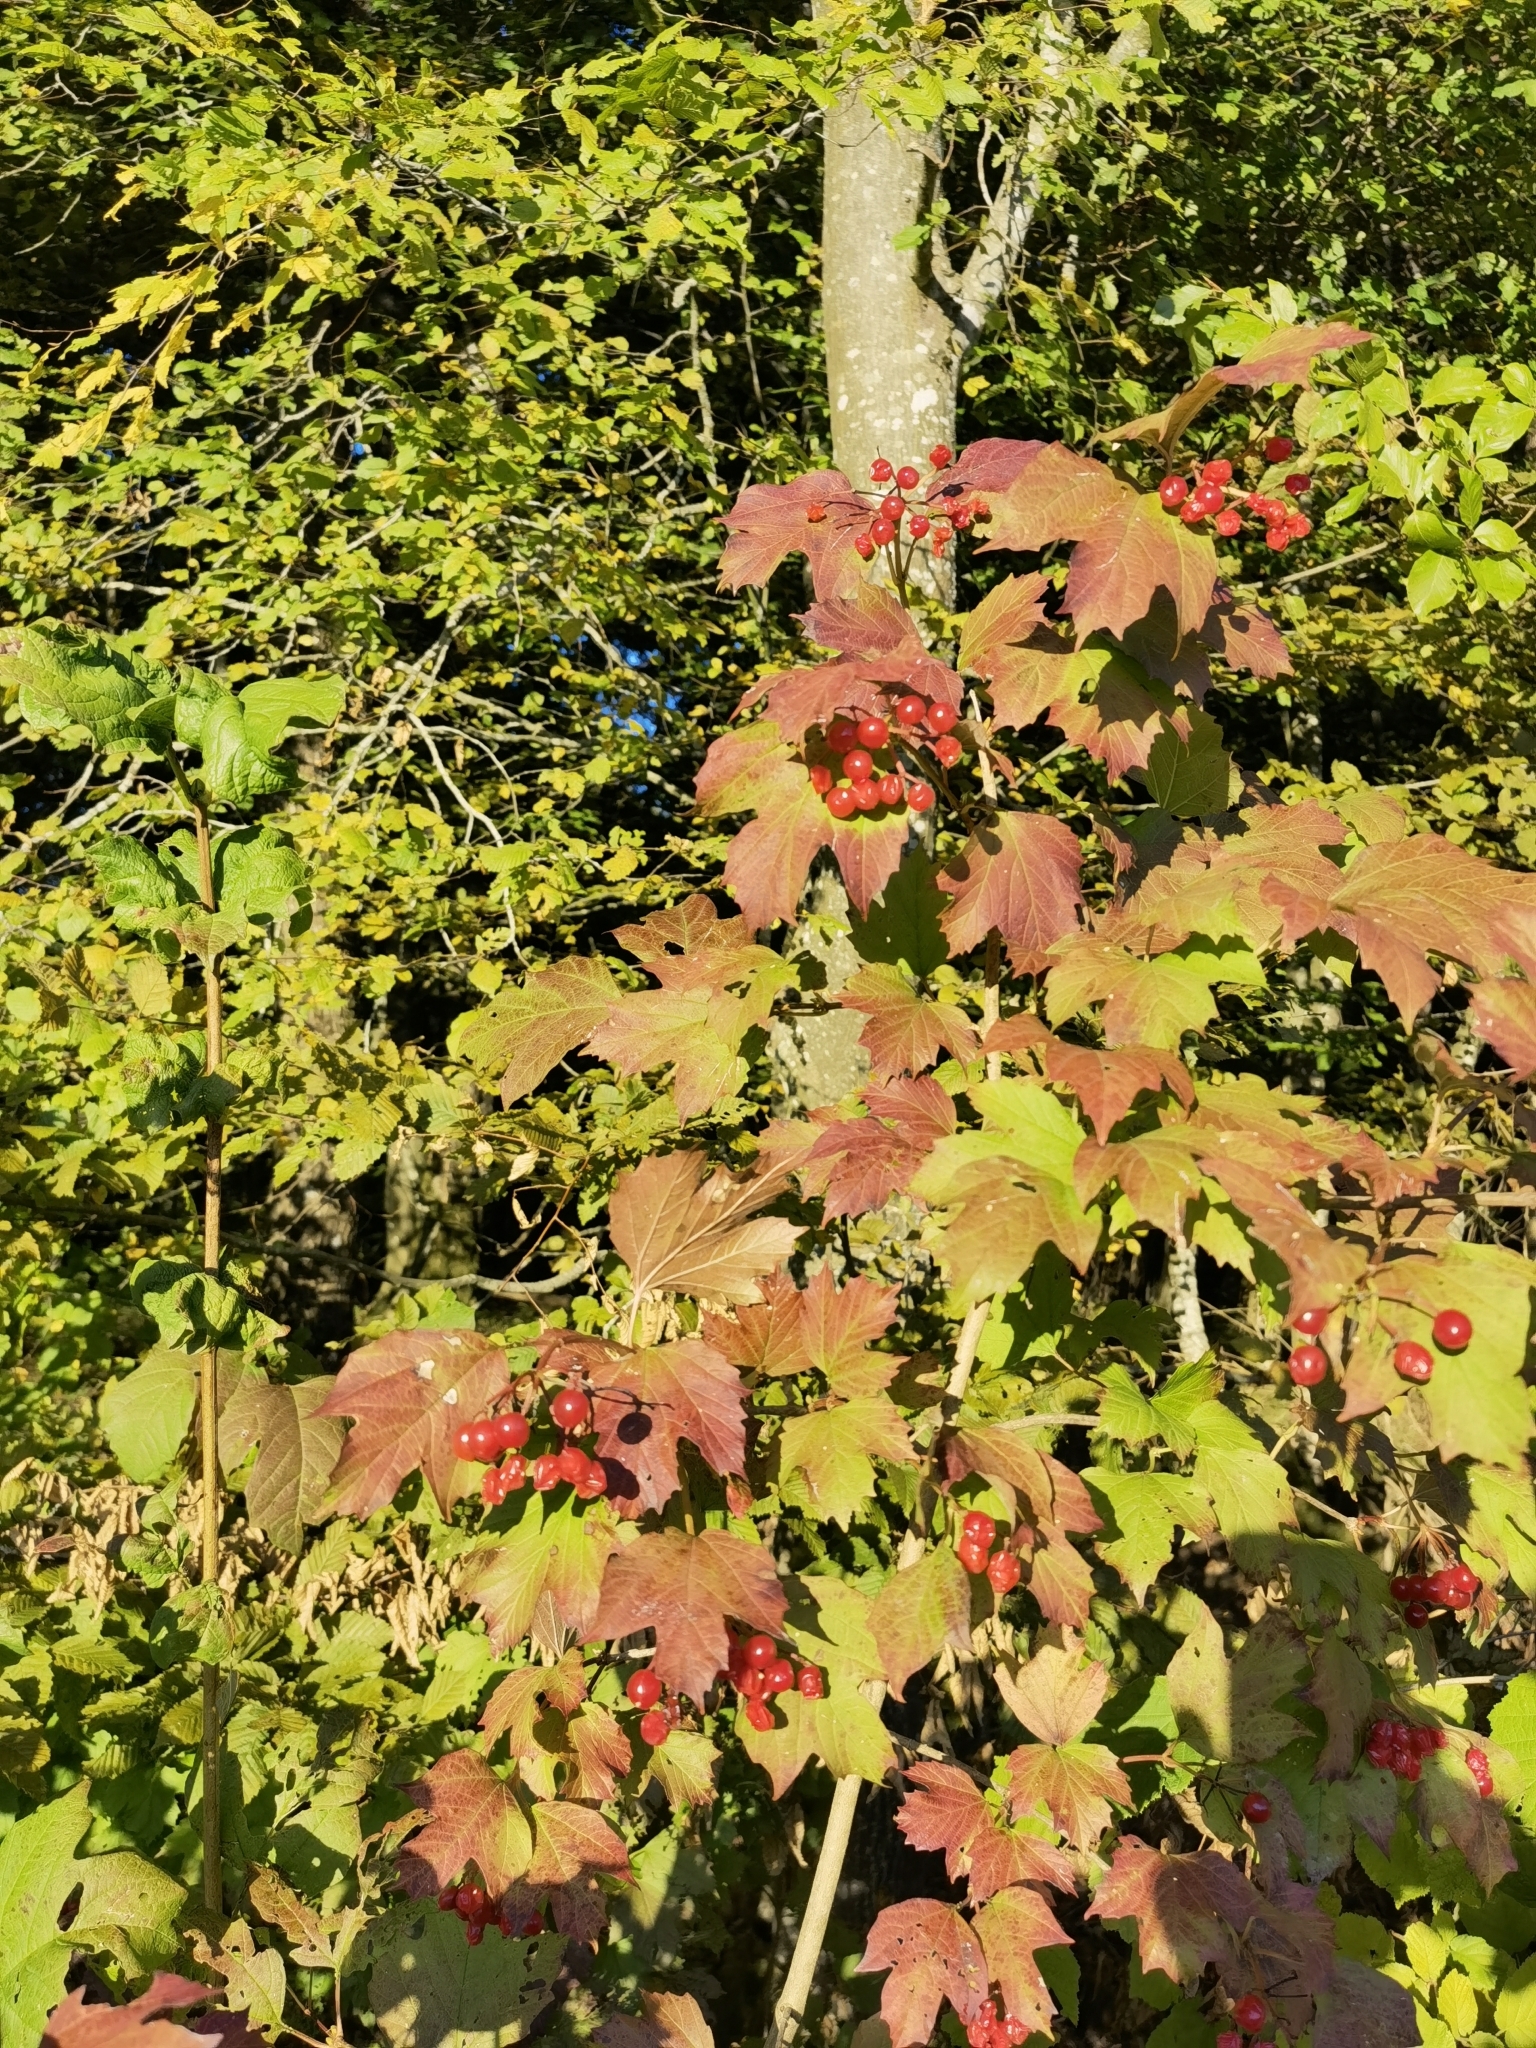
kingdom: Plantae
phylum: Tracheophyta
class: Magnoliopsida
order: Dipsacales
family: Viburnaceae
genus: Viburnum
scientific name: Viburnum opulus
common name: Guelder-rose
